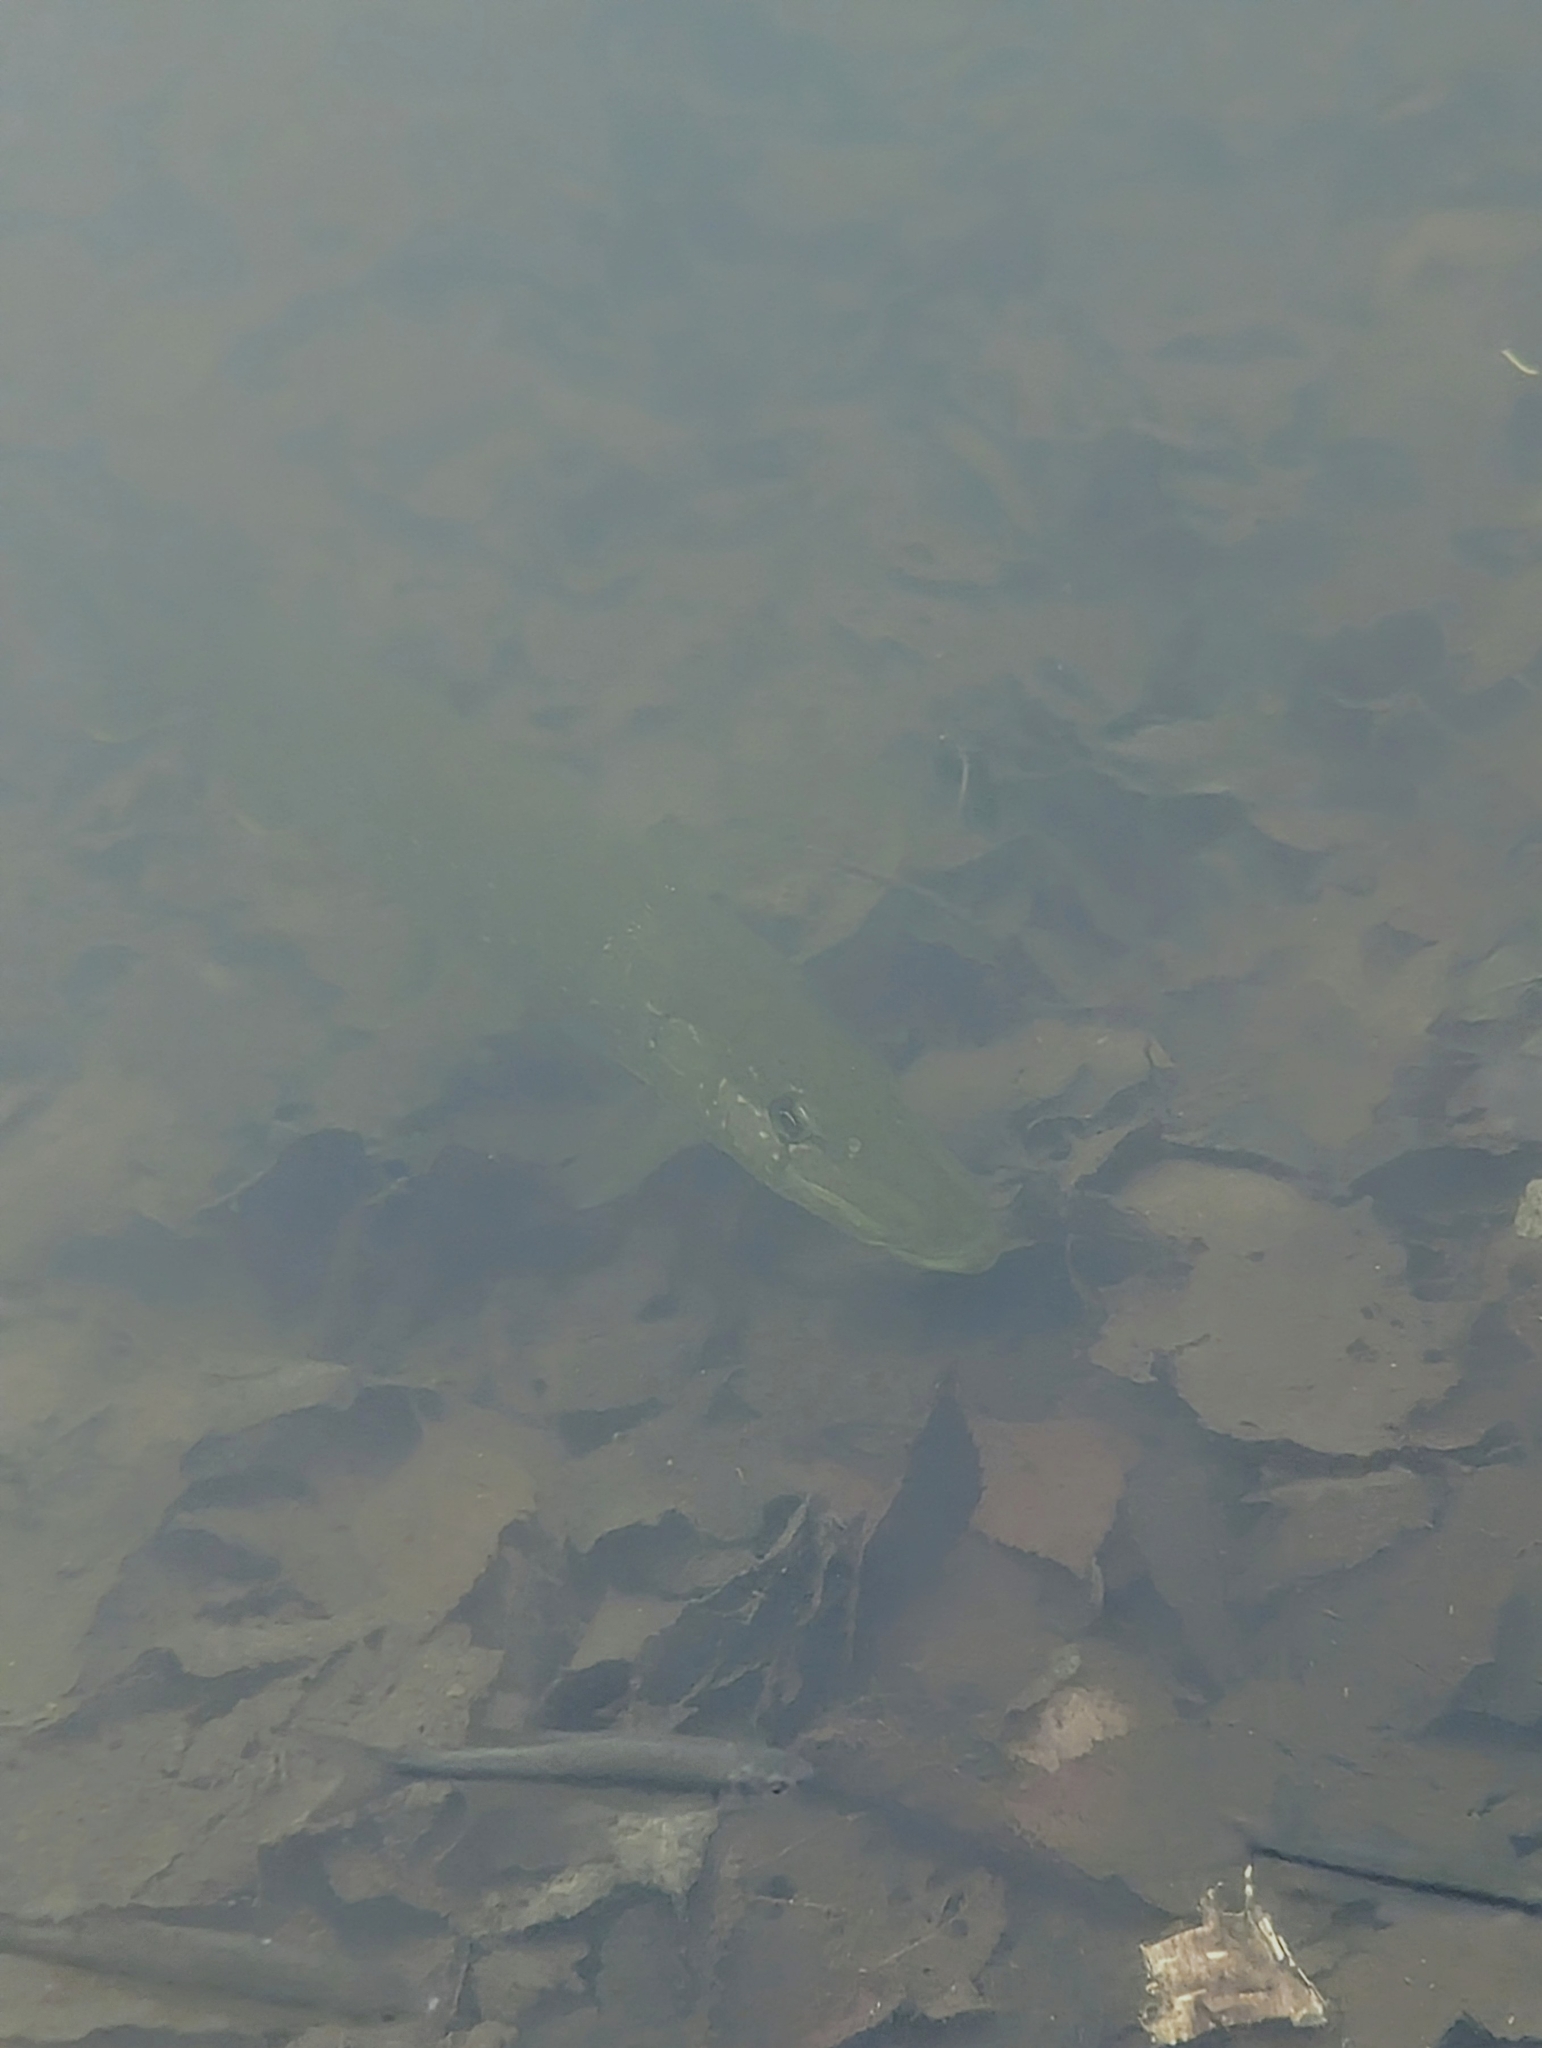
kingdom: Animalia
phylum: Chordata
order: Esociformes
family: Esocidae
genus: Esox
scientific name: Esox lucius
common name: Northern pike
